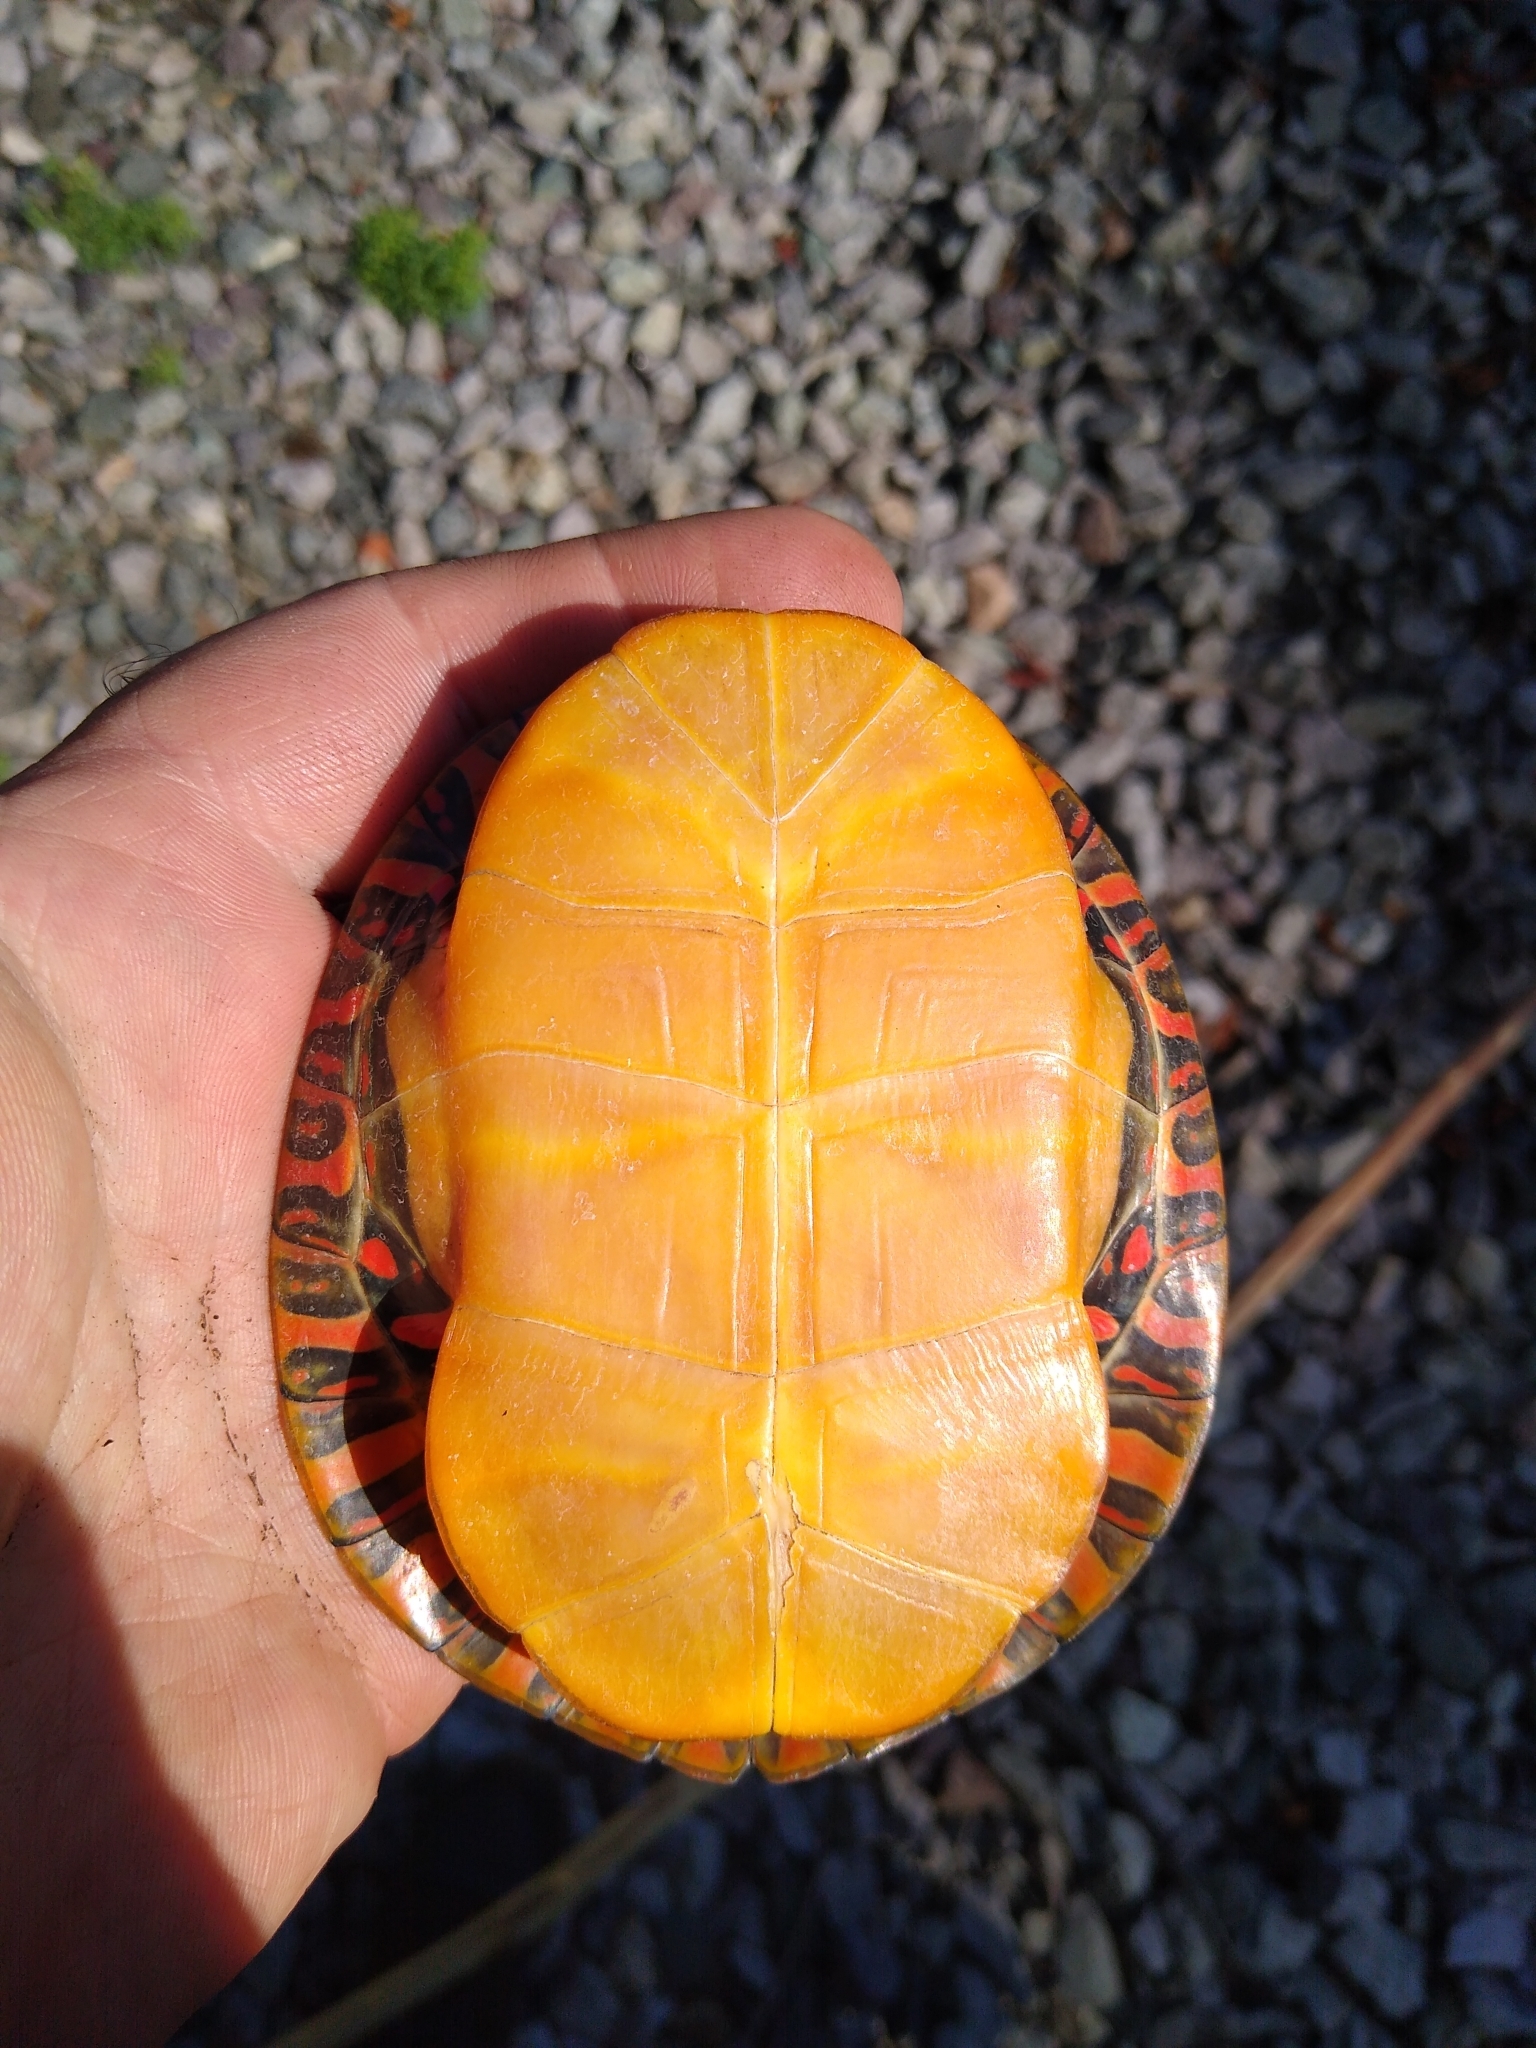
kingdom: Animalia
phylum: Chordata
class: Testudines
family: Emydidae
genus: Chrysemys
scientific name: Chrysemys picta
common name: Painted turtle
